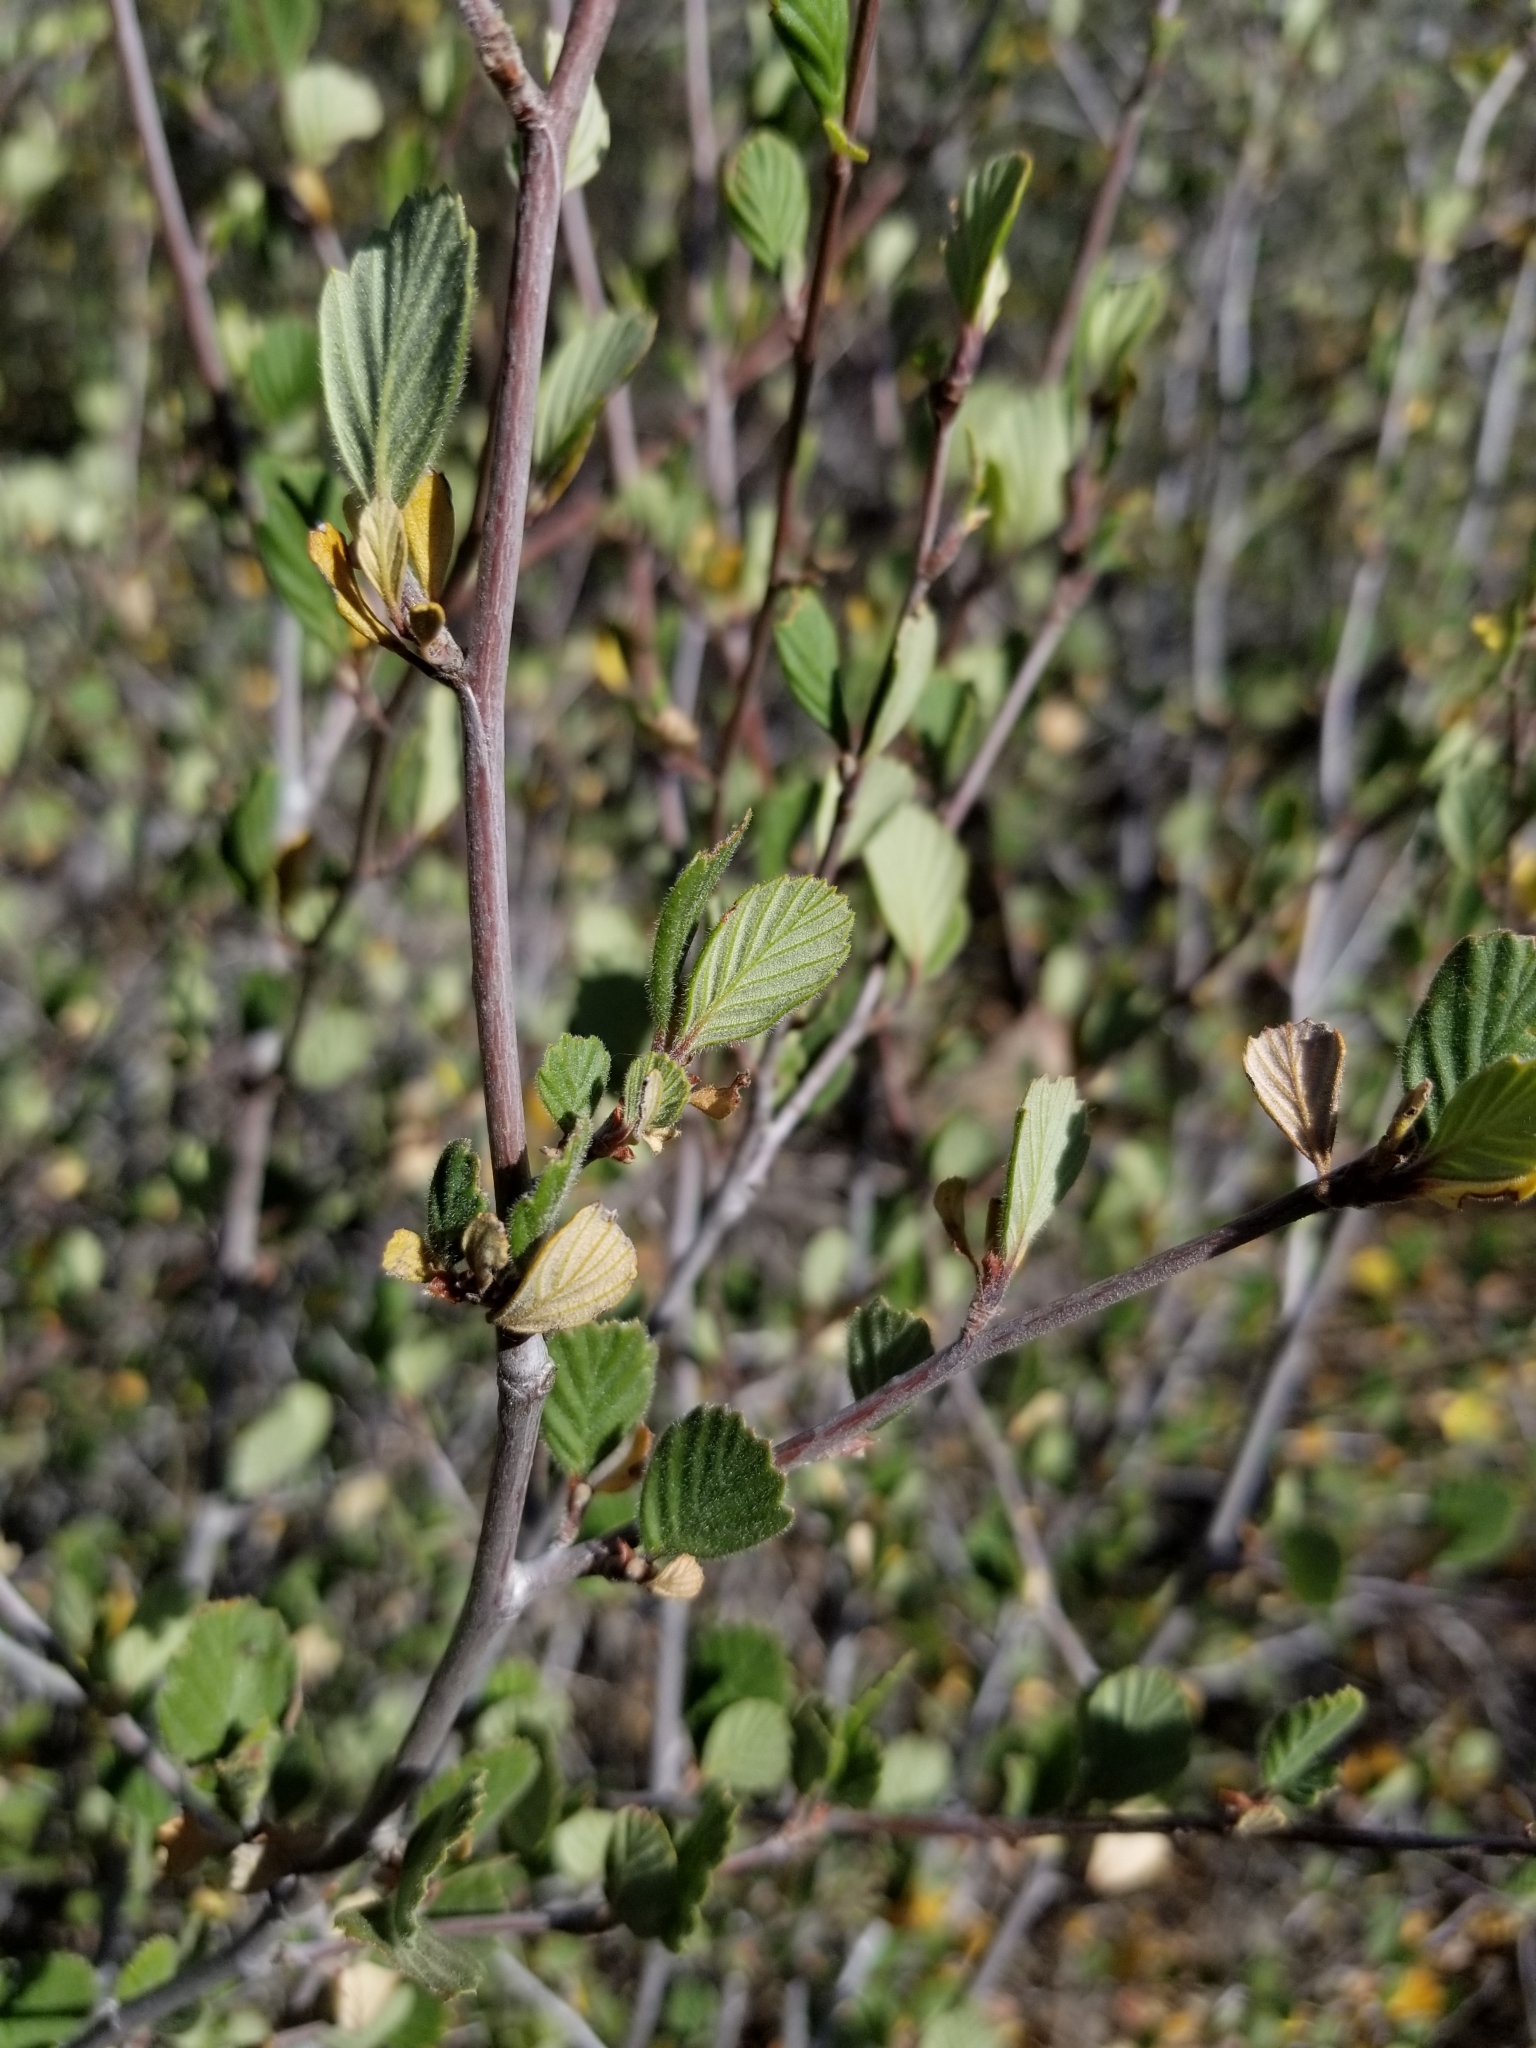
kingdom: Plantae
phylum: Tracheophyta
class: Magnoliopsida
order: Rosales
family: Rosaceae
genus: Cercocarpus
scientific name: Cercocarpus betuloides
